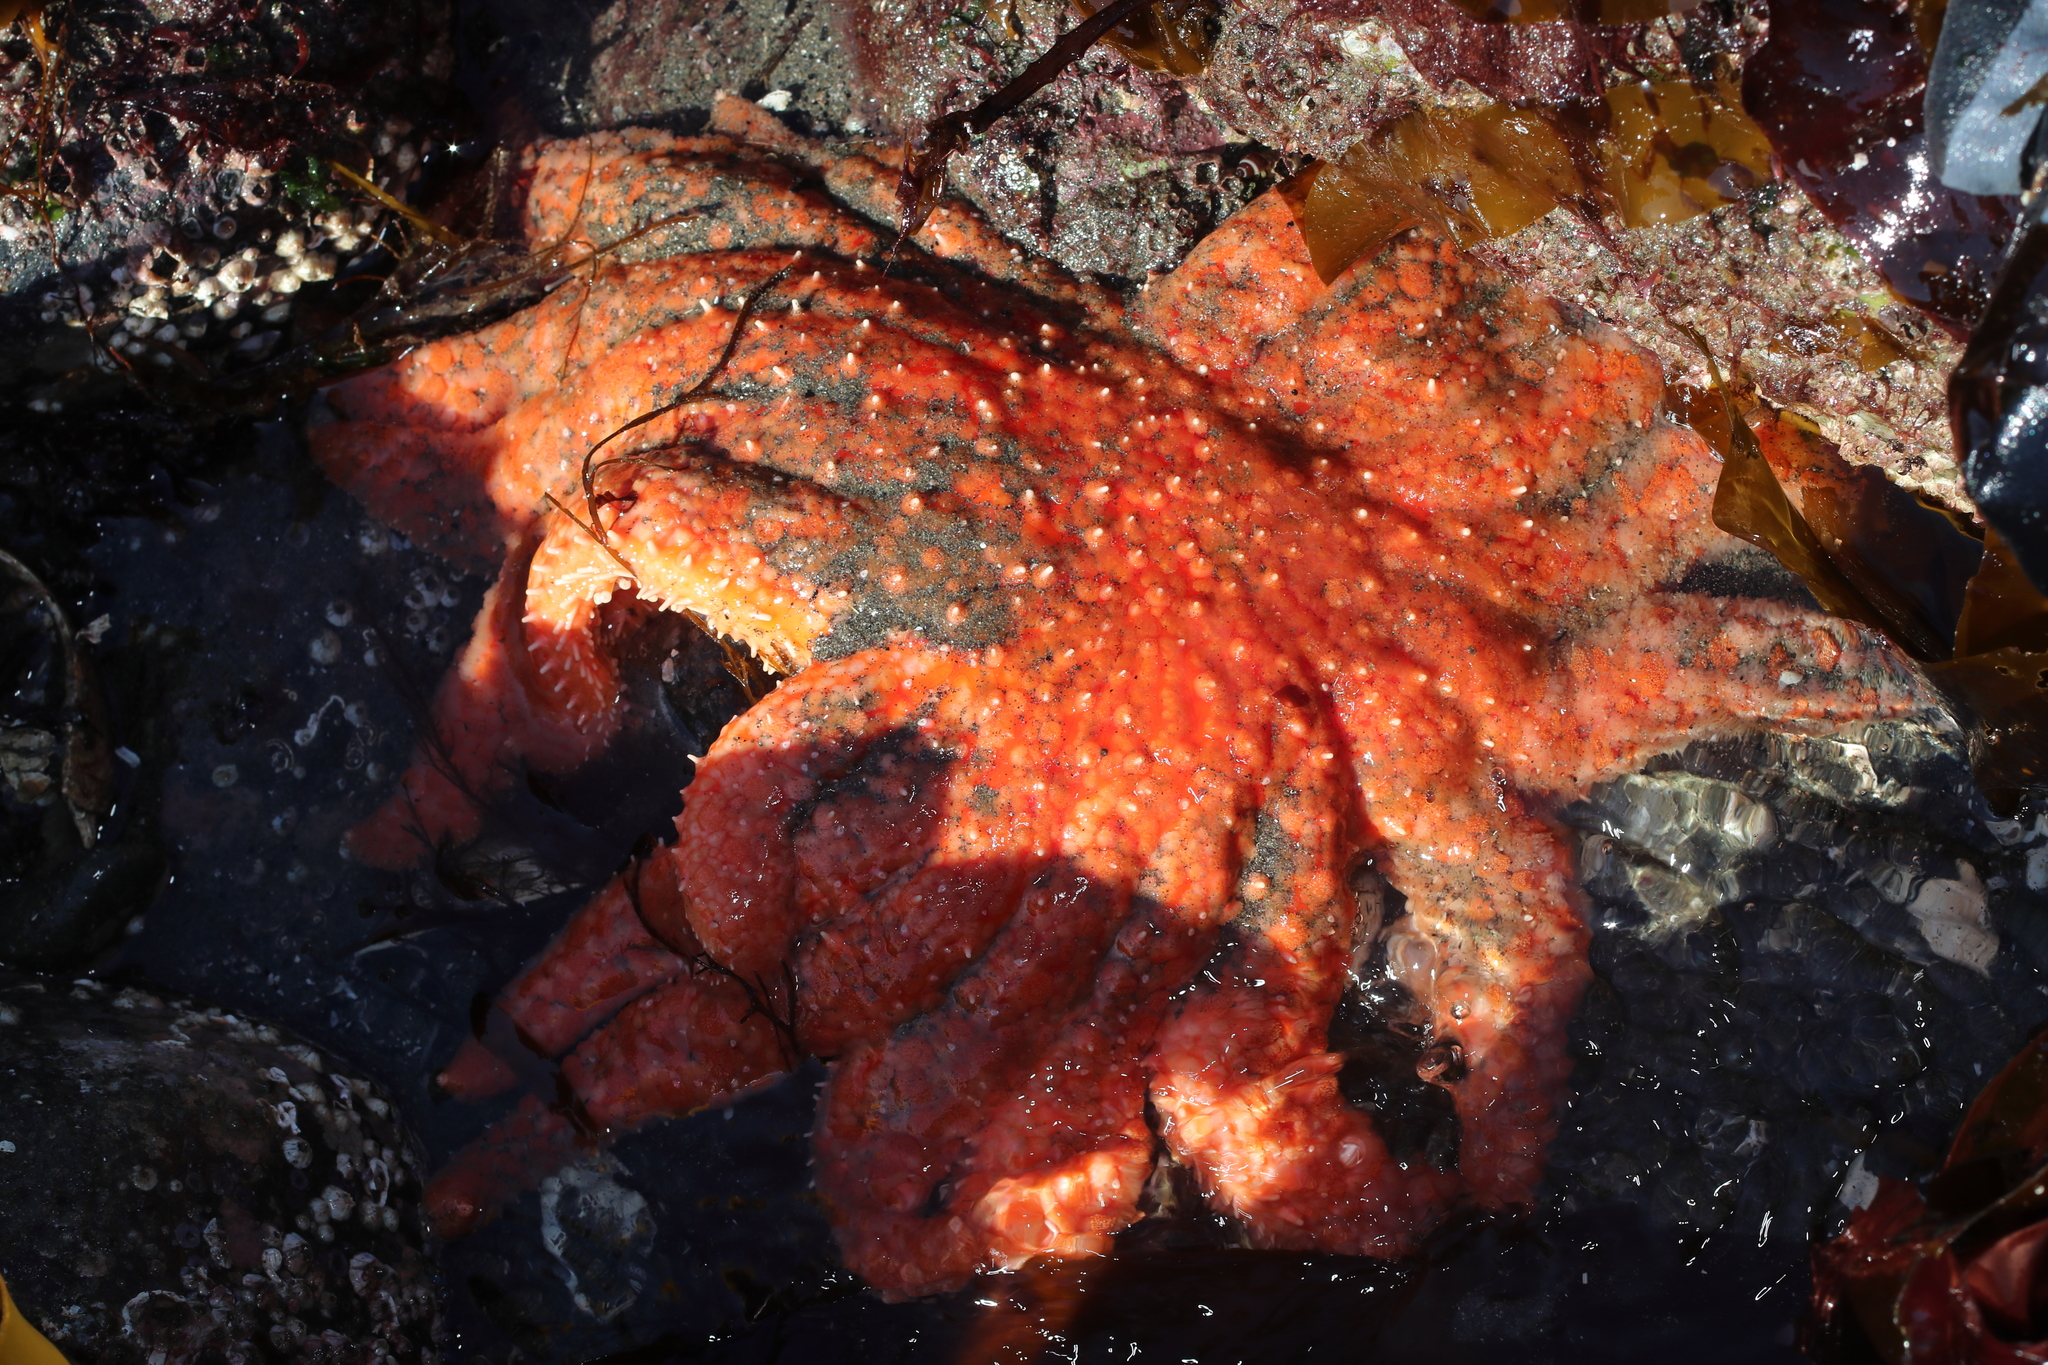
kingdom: Animalia
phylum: Echinodermata
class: Asteroidea
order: Forcipulatida
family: Asteriidae
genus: Pycnopodia
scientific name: Pycnopodia helianthoides
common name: Rag mop
